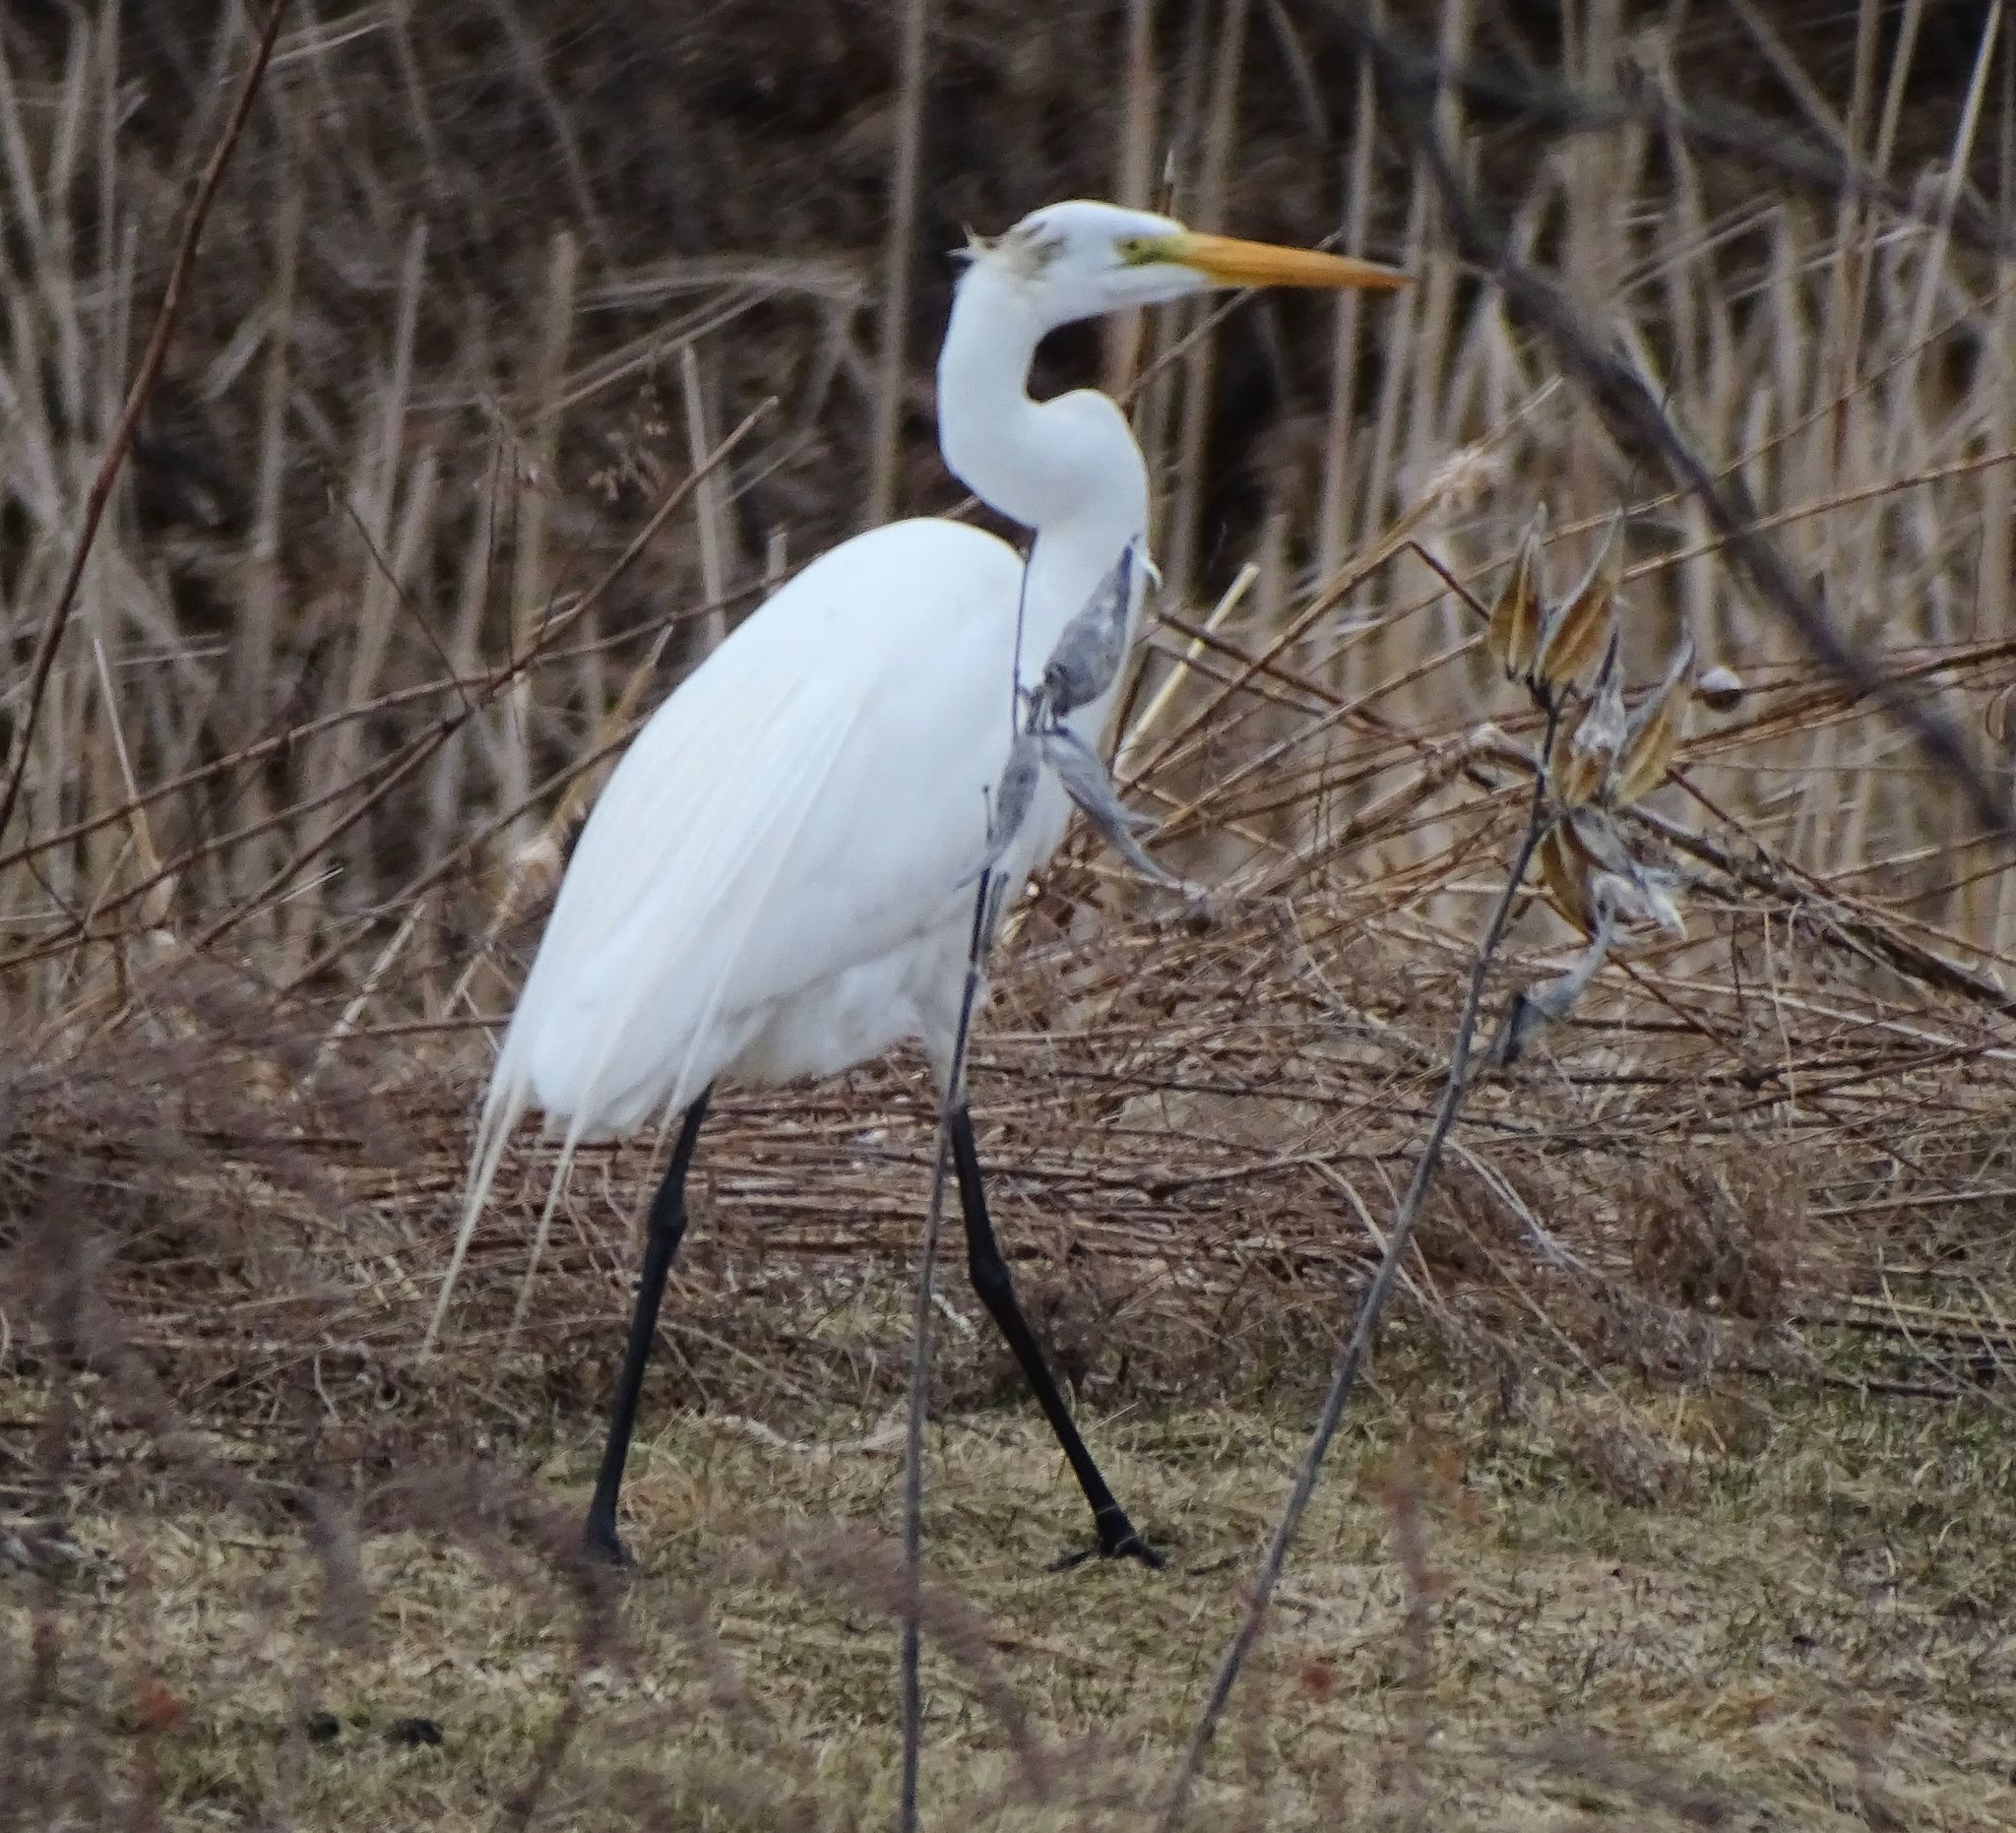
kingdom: Animalia
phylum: Chordata
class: Aves
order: Pelecaniformes
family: Ardeidae
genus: Ardea
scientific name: Ardea alba
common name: Great egret
